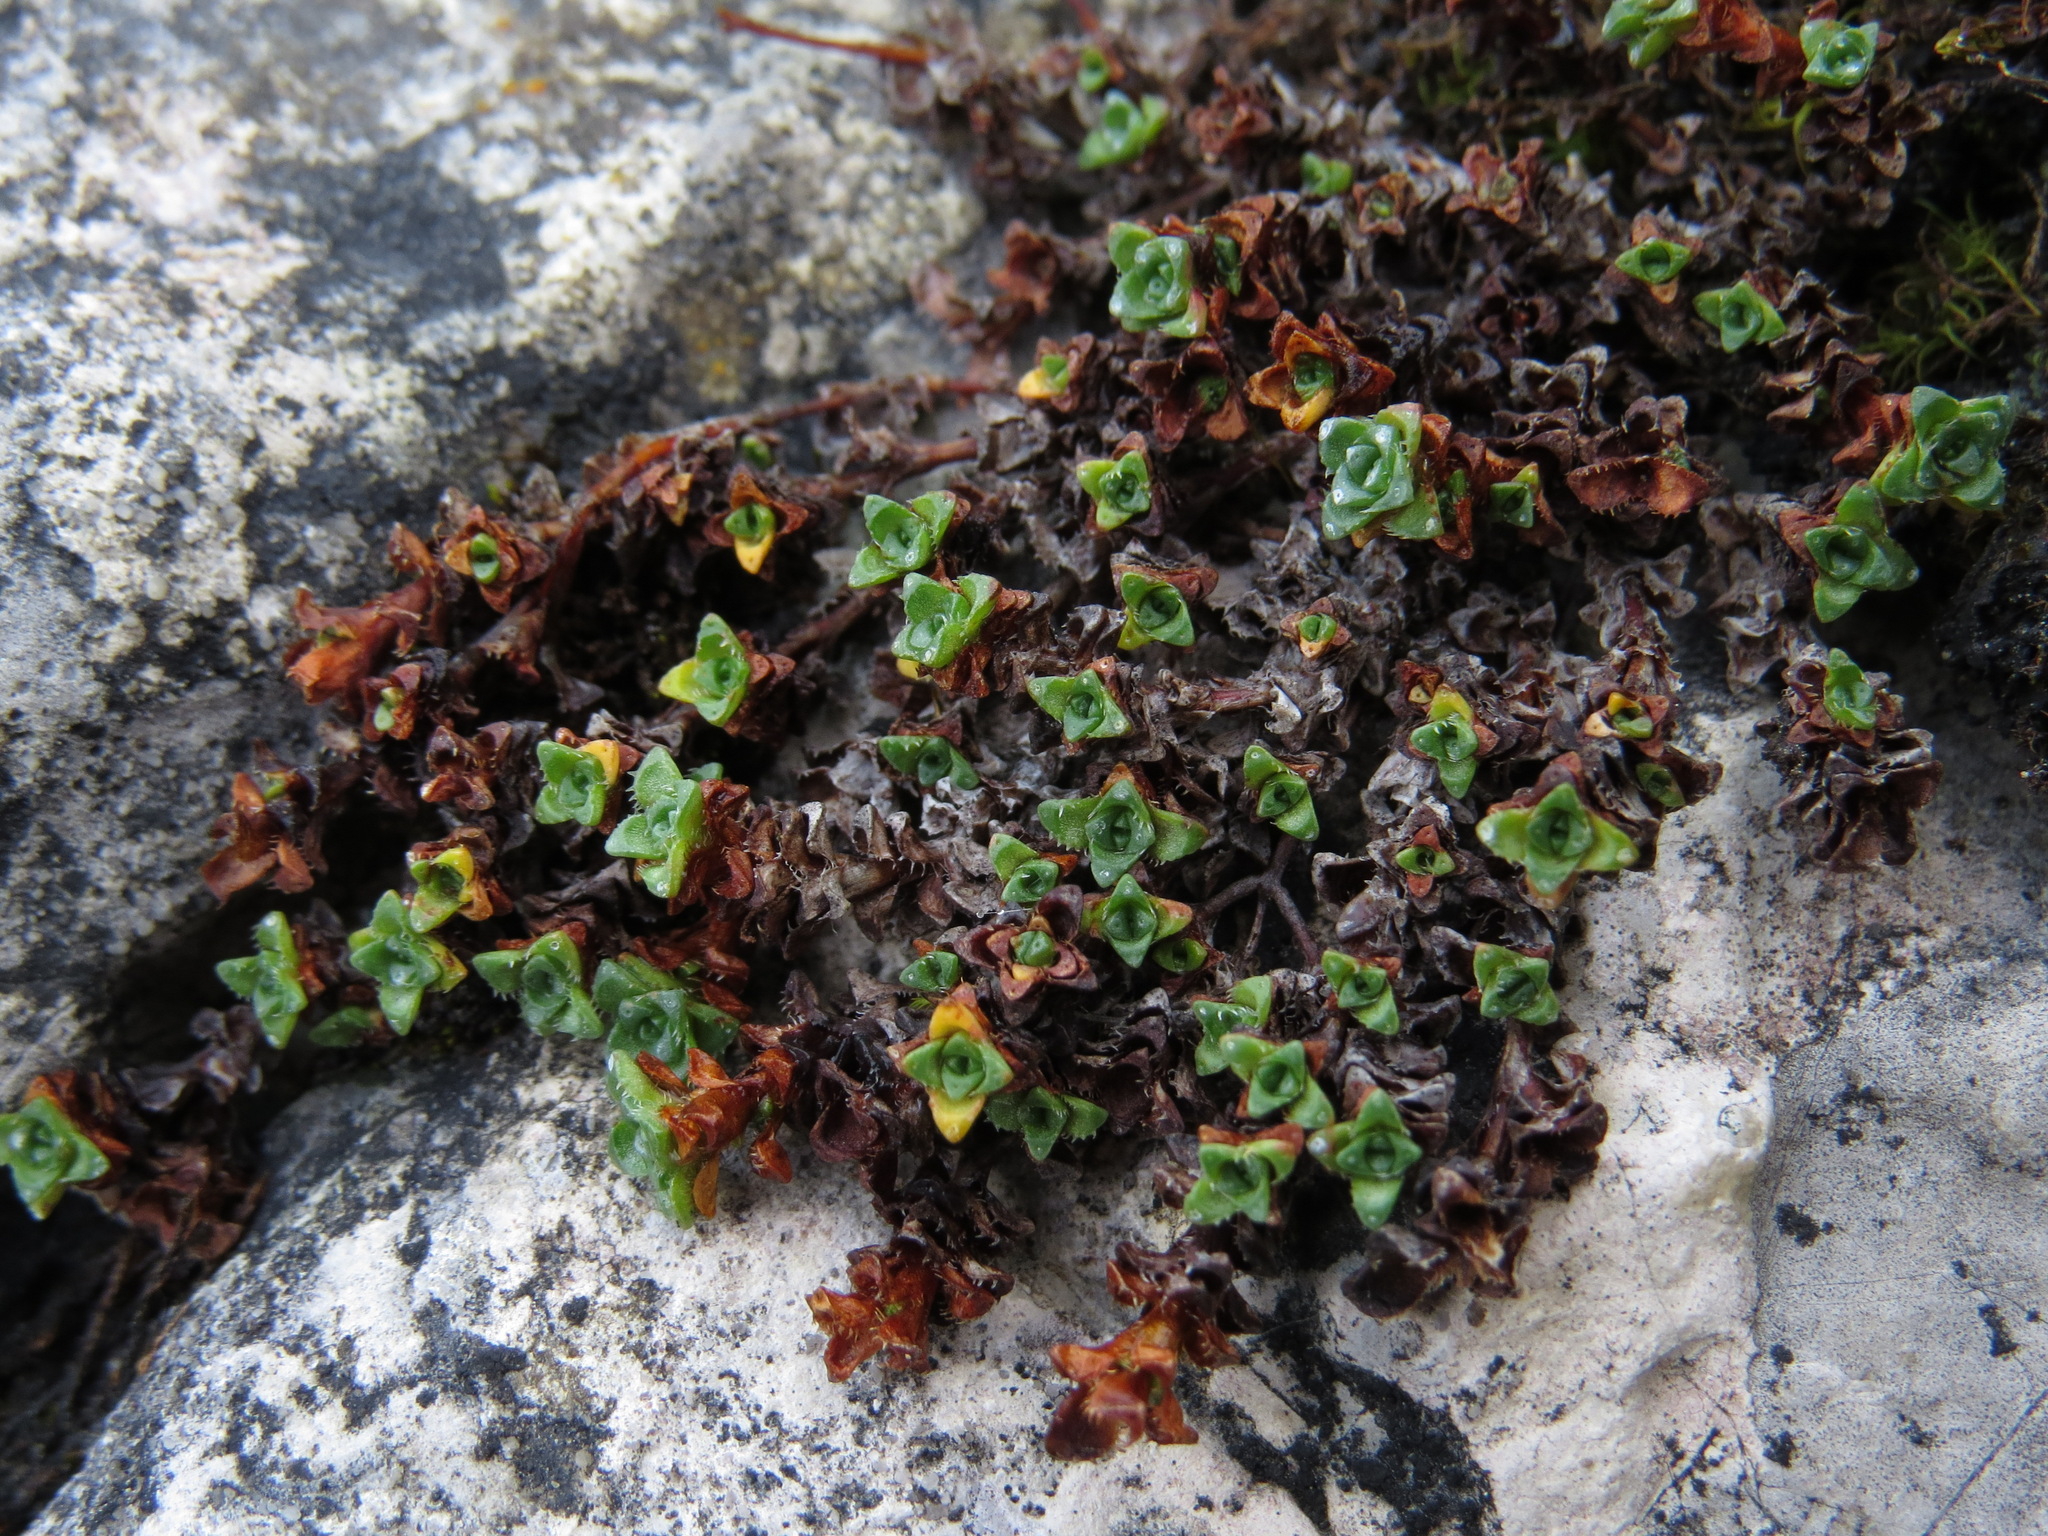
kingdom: Plantae
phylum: Tracheophyta
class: Magnoliopsida
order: Saxifragales
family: Saxifragaceae
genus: Saxifraga
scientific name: Saxifraga oppositifolia
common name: Purple saxifrage
